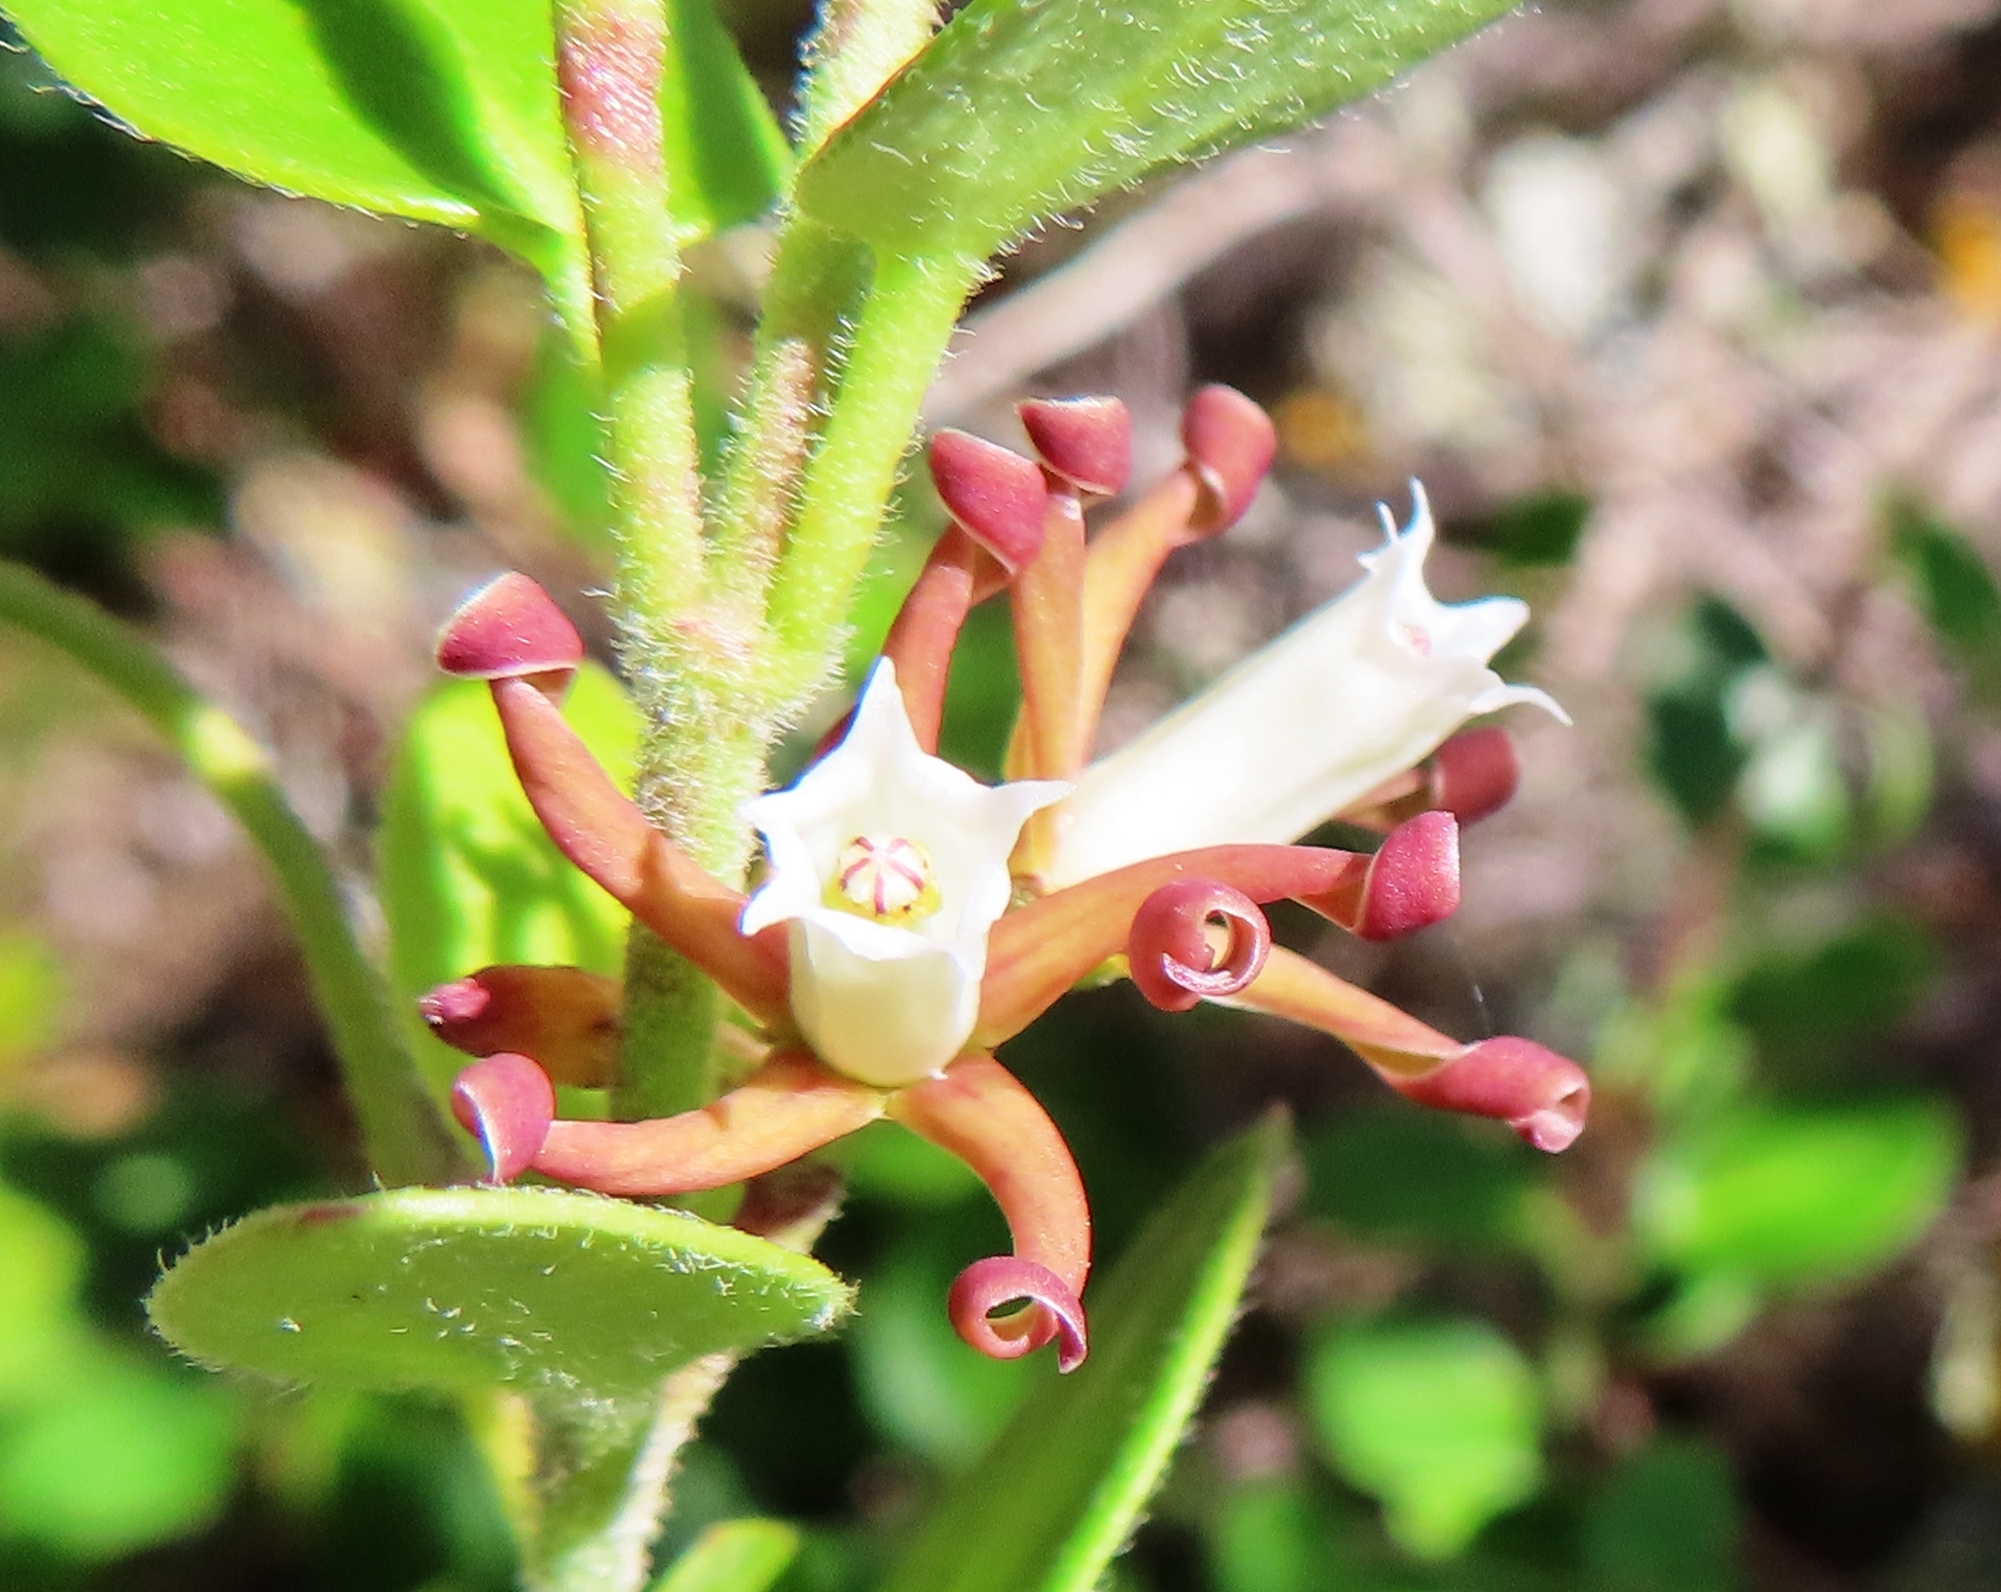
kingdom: Plantae
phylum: Tracheophyta
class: Magnoliopsida
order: Gentianales
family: Apocynaceae
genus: Cynanchum
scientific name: Cynanchum africanum
